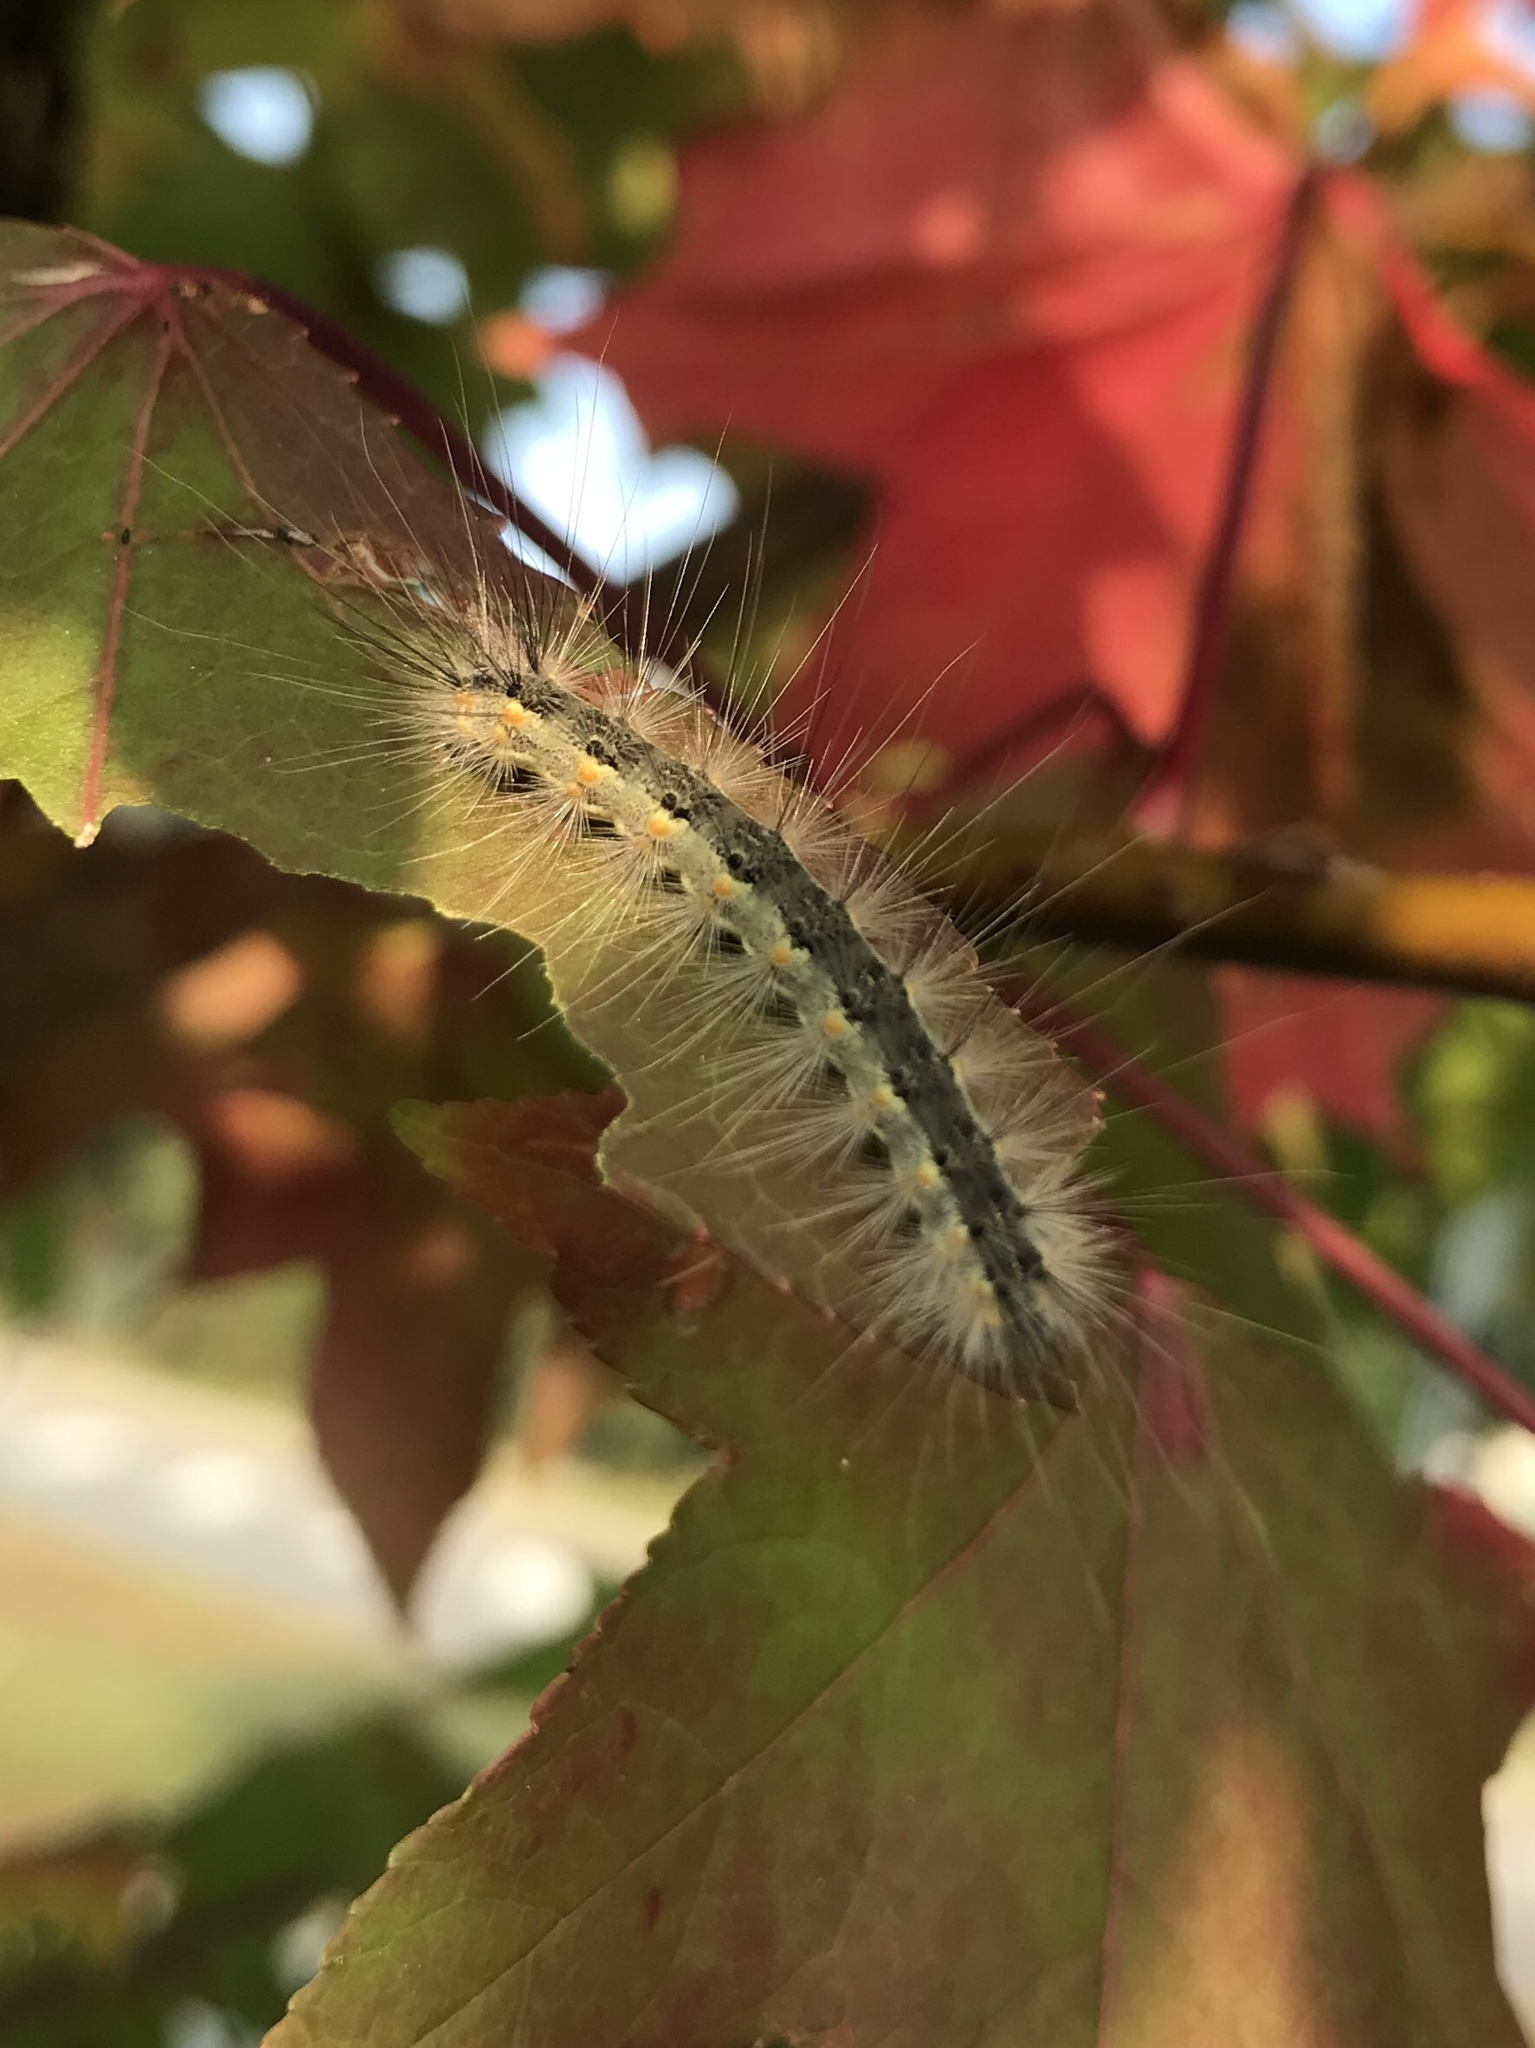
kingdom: Animalia
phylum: Arthropoda
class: Insecta
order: Lepidoptera
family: Erebidae
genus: Hyphantria
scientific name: Hyphantria cunea
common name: American white moth
